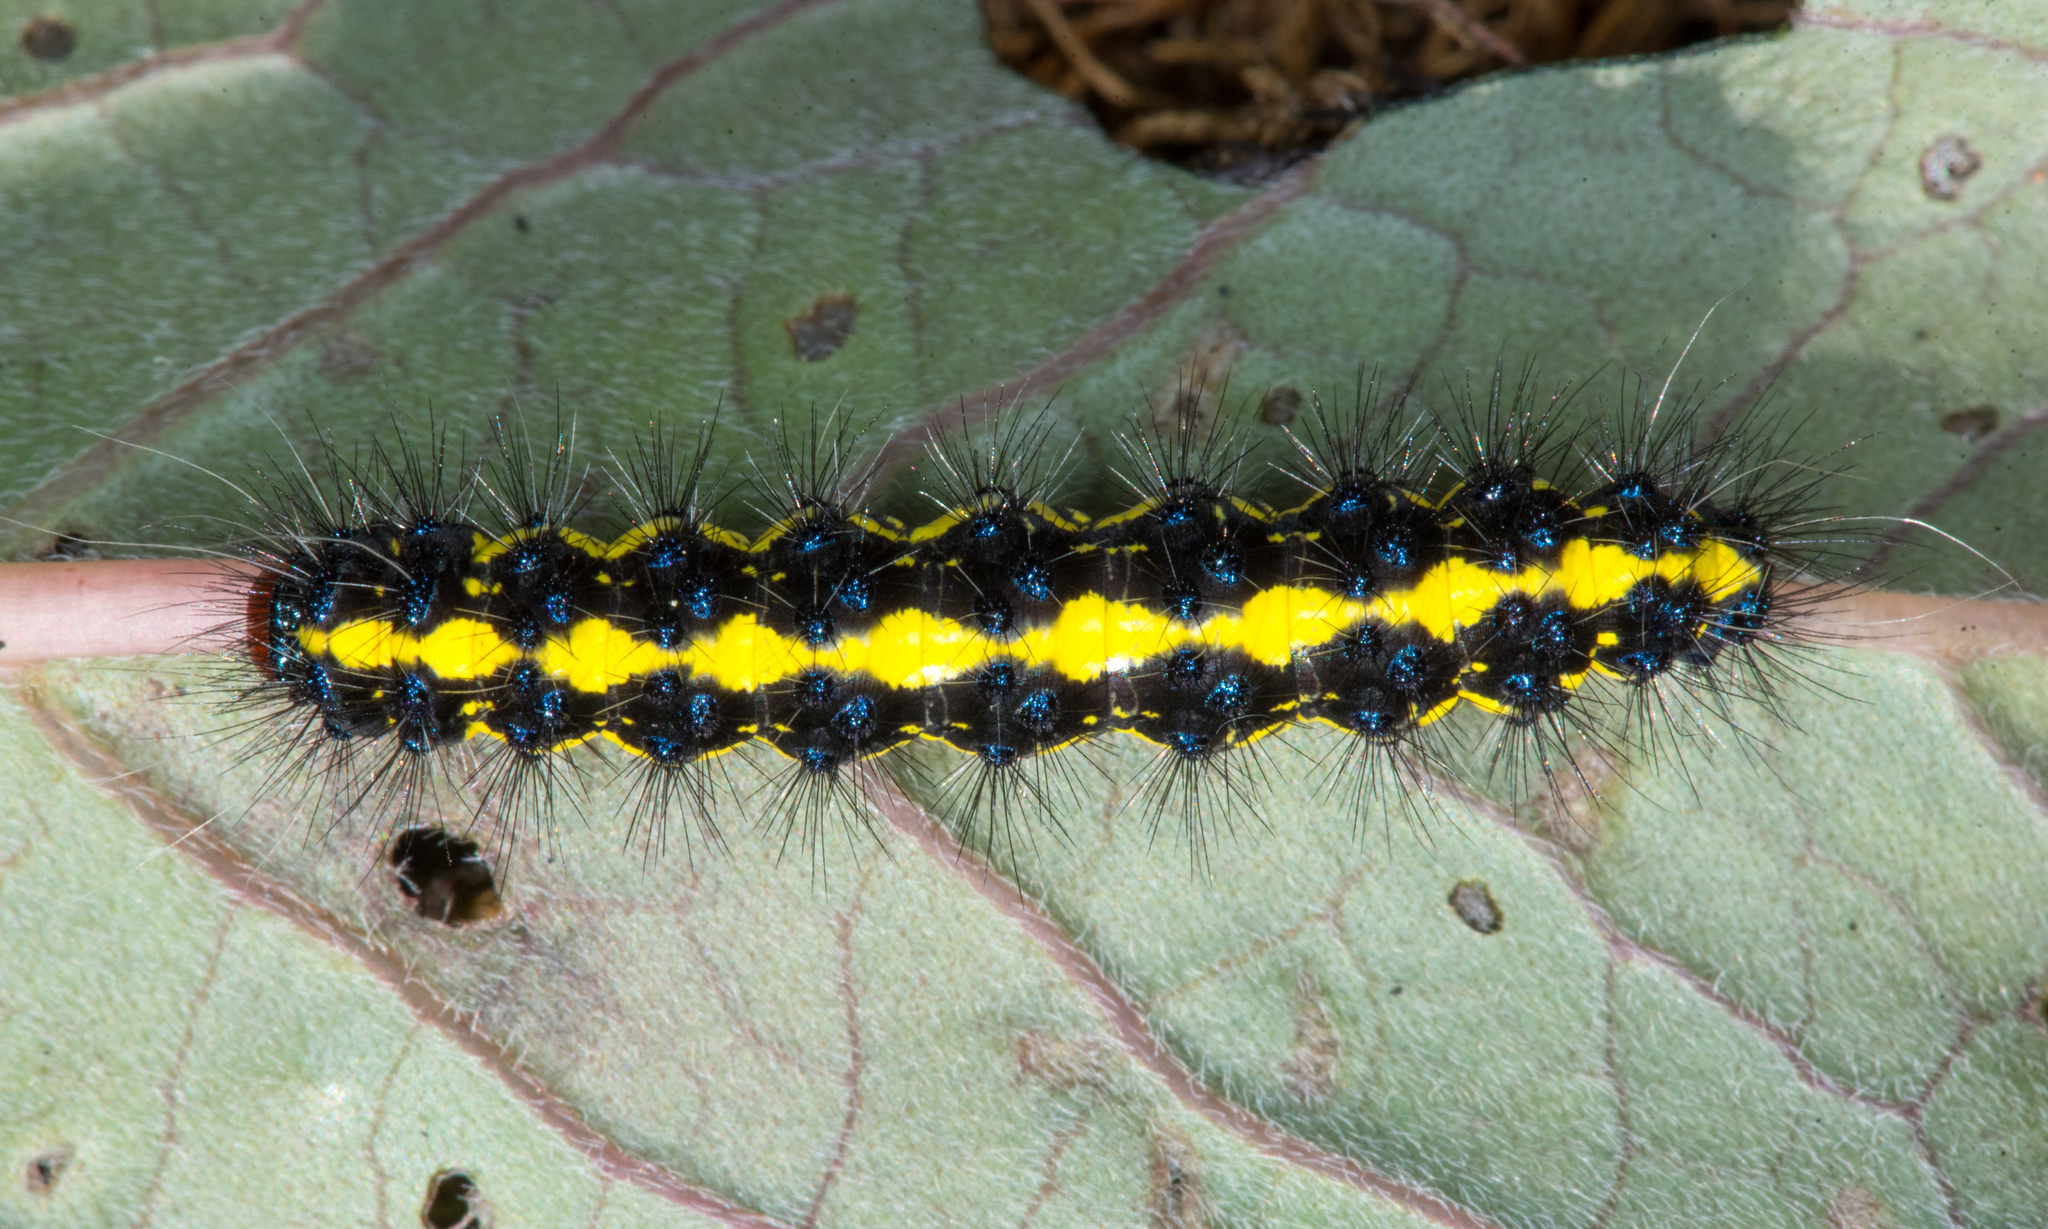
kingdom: Animalia
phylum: Arthropoda
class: Insecta
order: Lepidoptera
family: Erebidae
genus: Gnophaela
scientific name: Gnophaela latipennis
